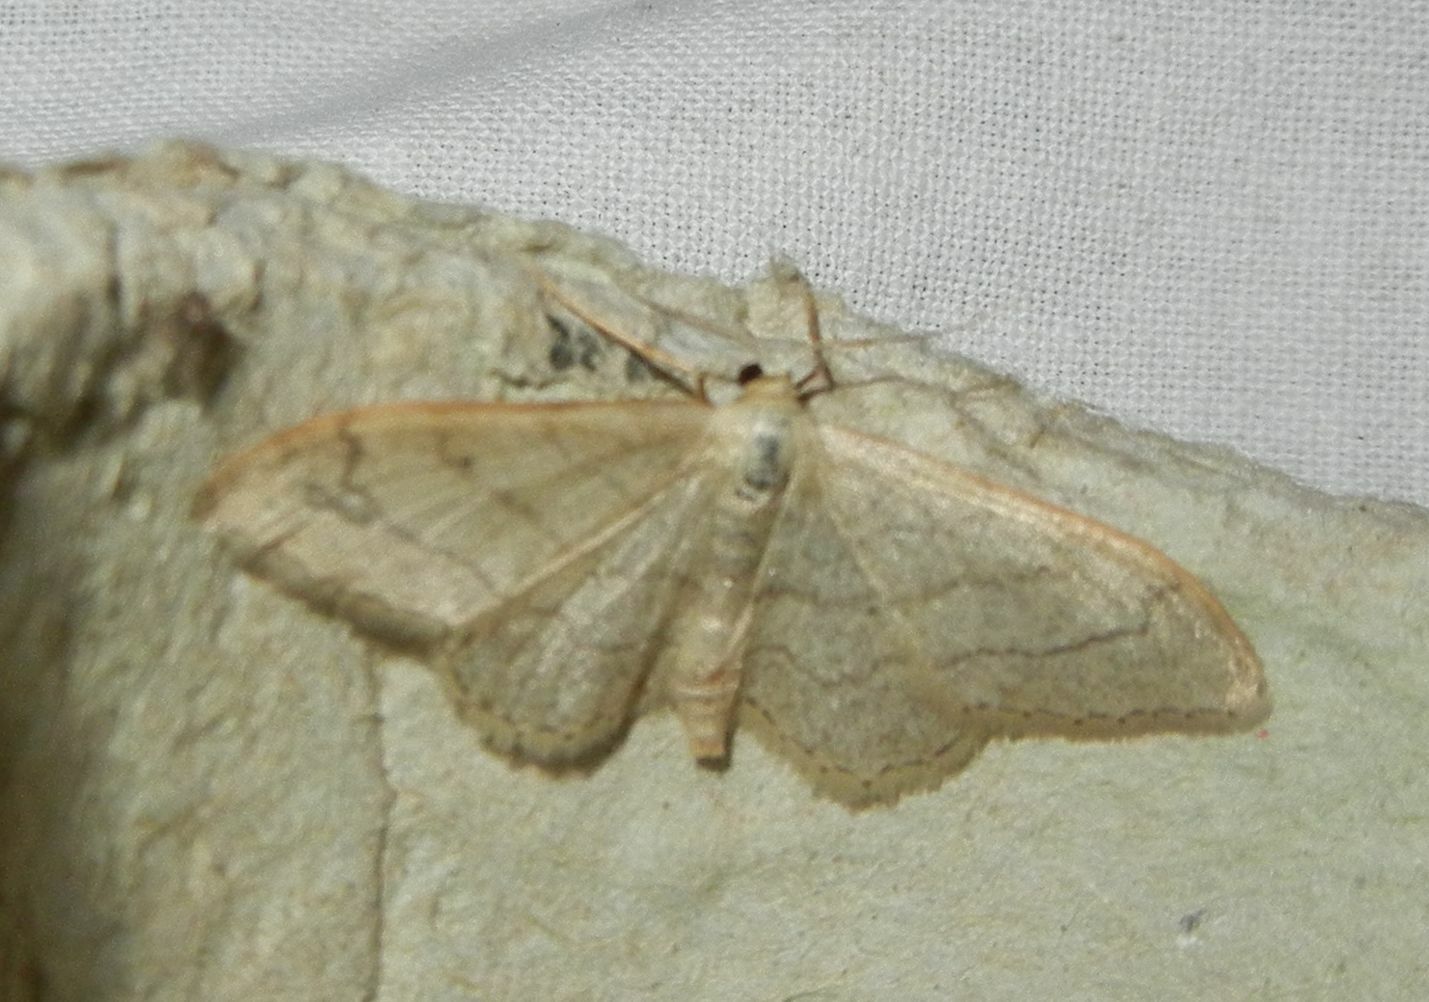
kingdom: Animalia
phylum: Arthropoda
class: Insecta
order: Lepidoptera
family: Geometridae
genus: Idaea
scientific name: Idaea aversata
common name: Riband wave
